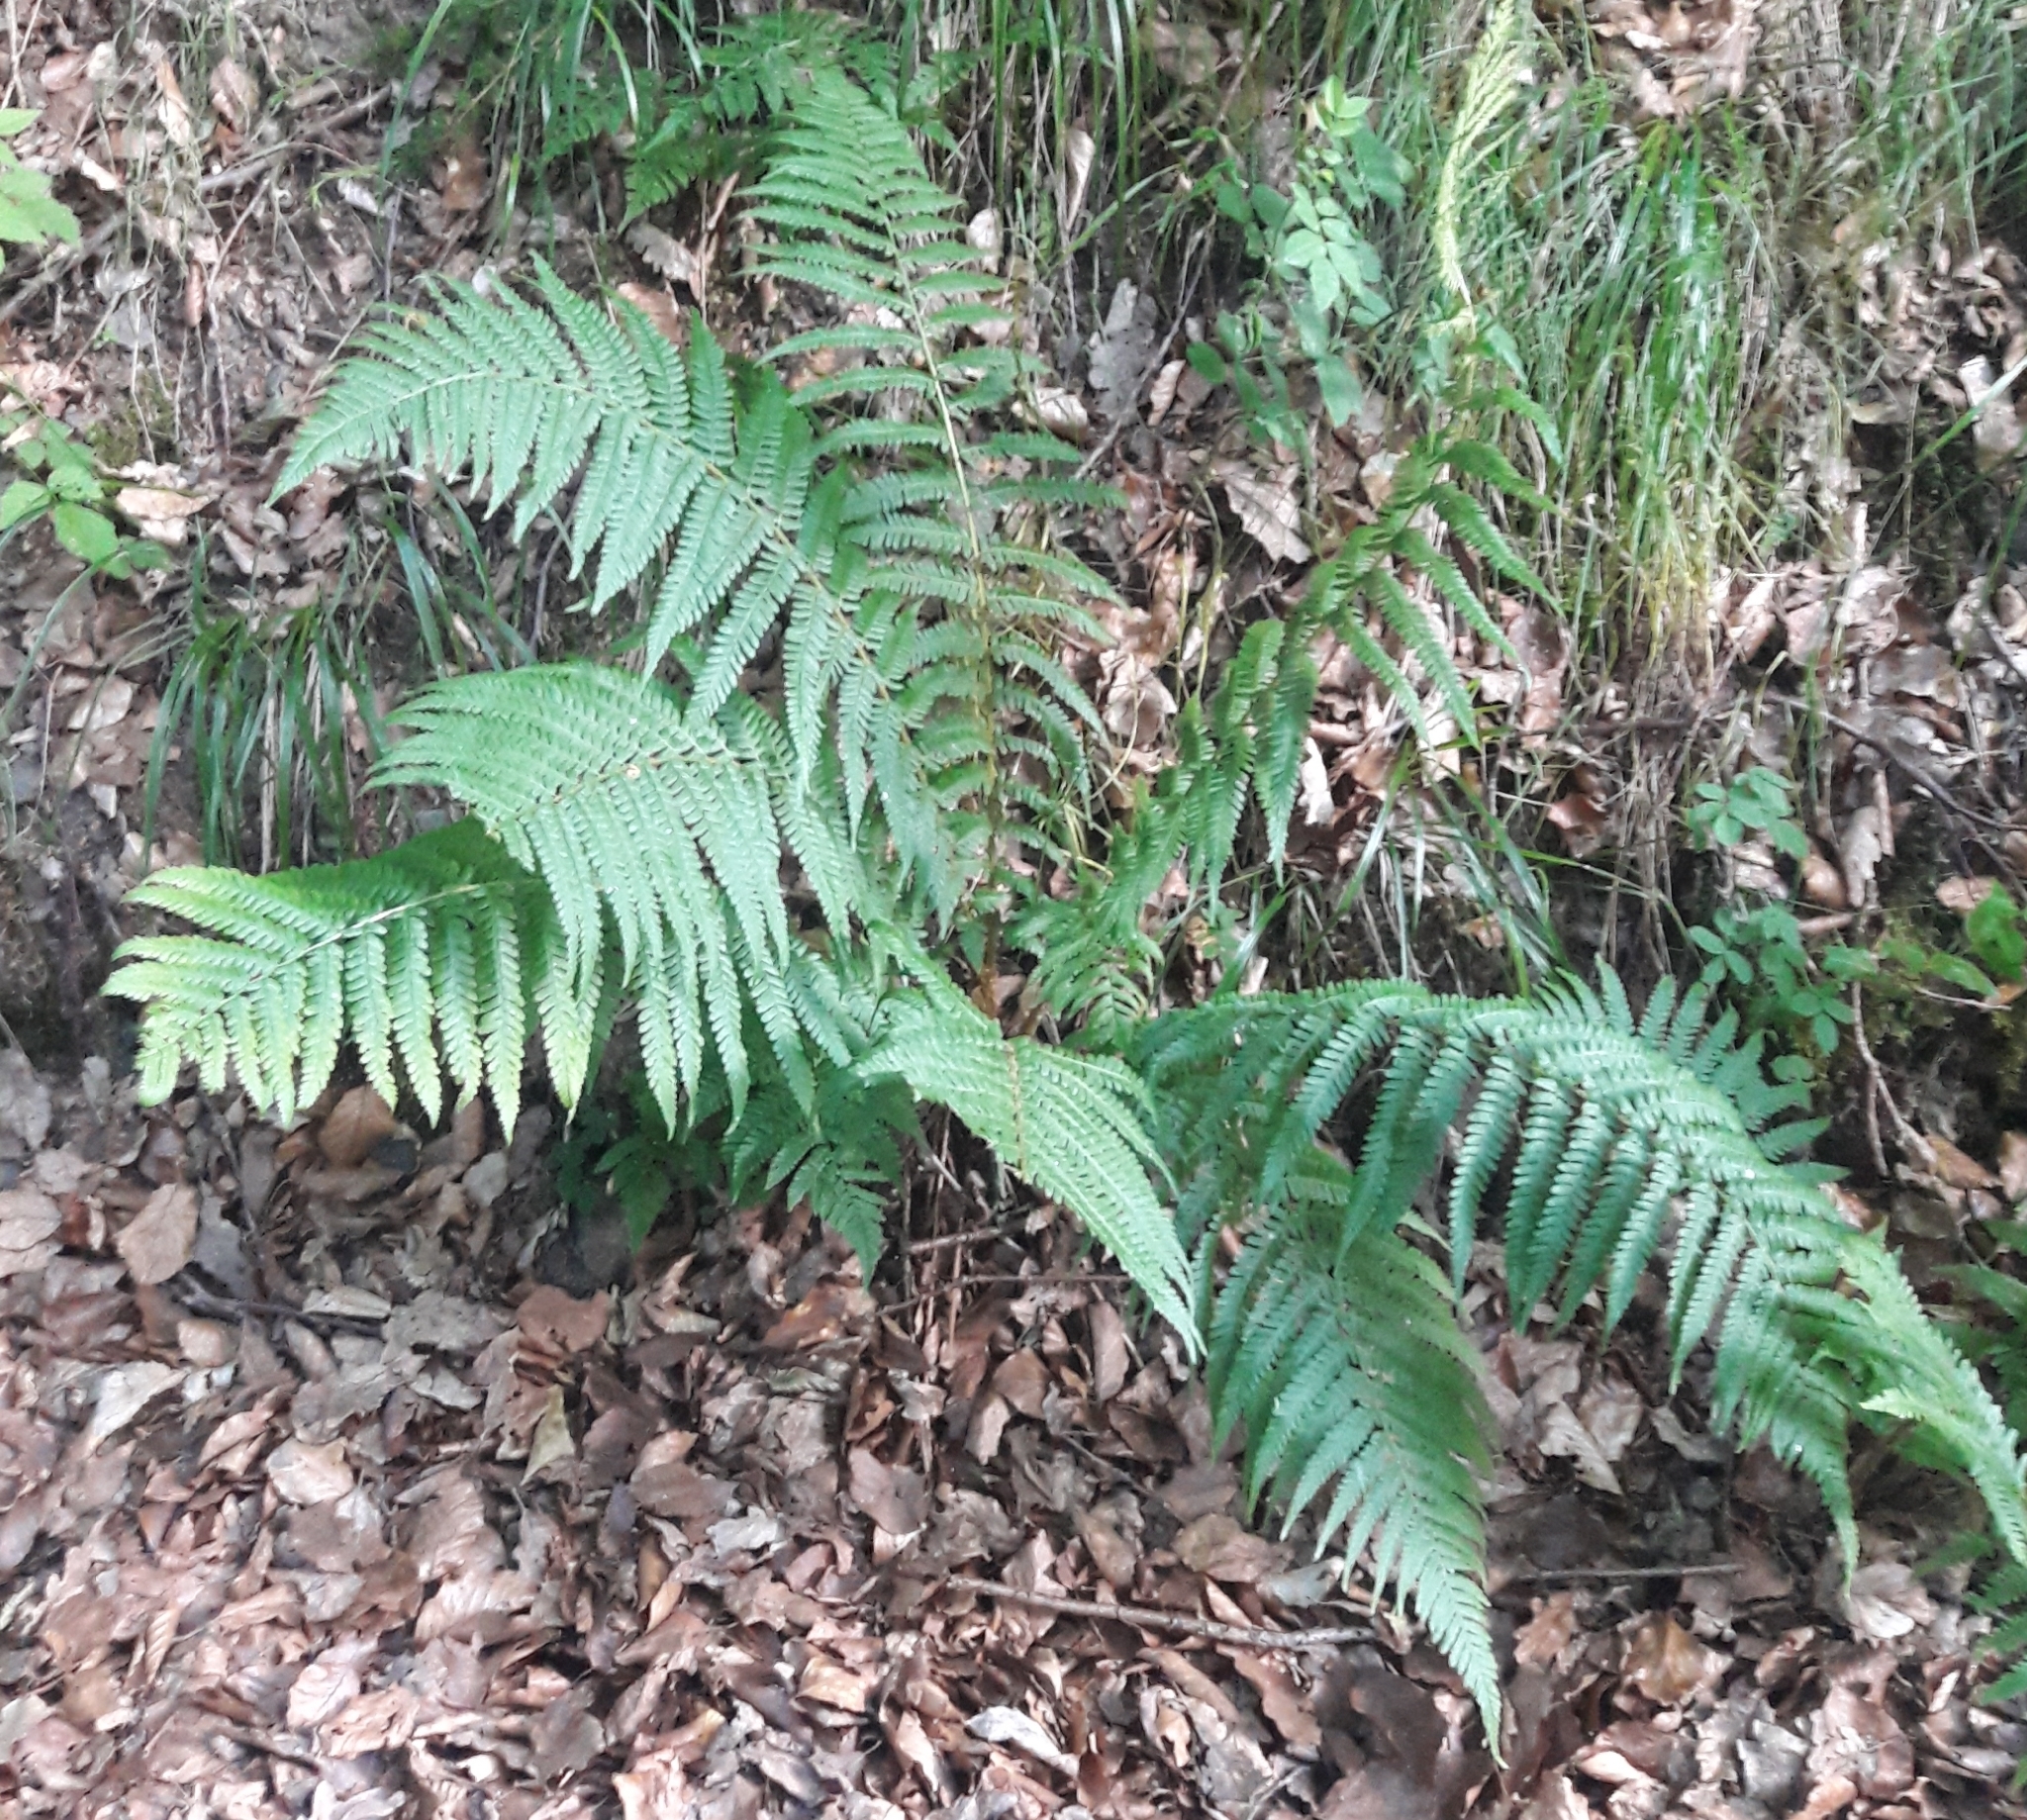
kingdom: Plantae
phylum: Tracheophyta
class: Polypodiopsida
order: Polypodiales
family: Dryopteridaceae
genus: Dryopteris
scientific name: Dryopteris filix-mas
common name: Male fern
